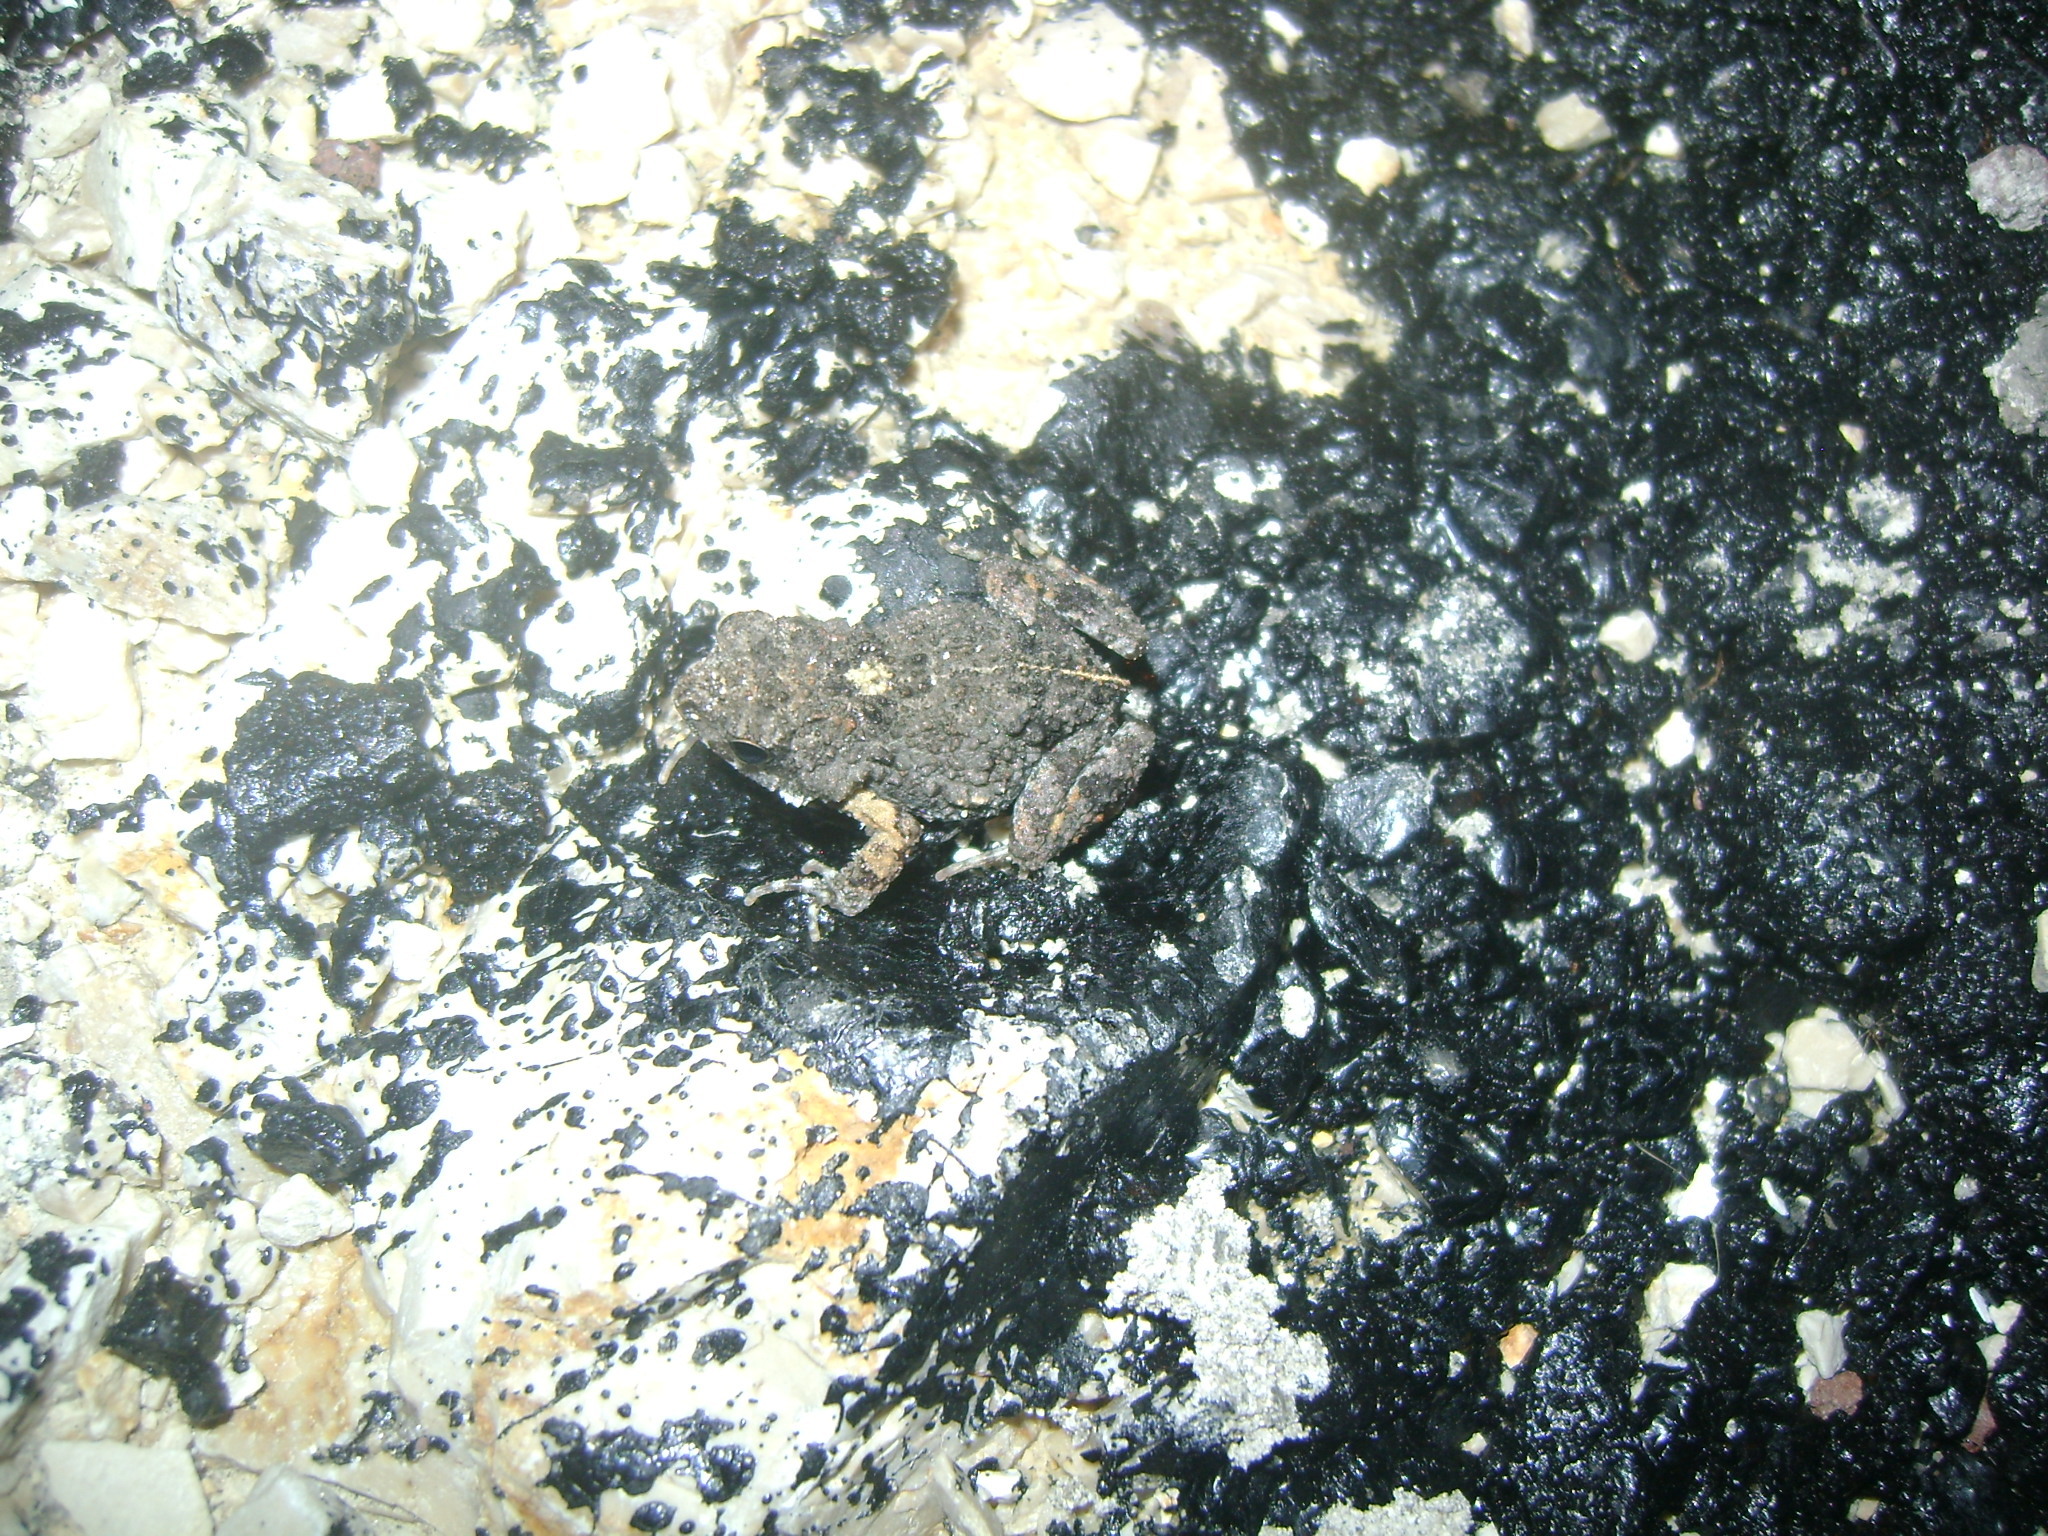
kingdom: Animalia
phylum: Chordata
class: Amphibia
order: Anura
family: Leptodactylidae
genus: Engystomops
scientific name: Engystomops pustulosus
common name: Tungara frog
